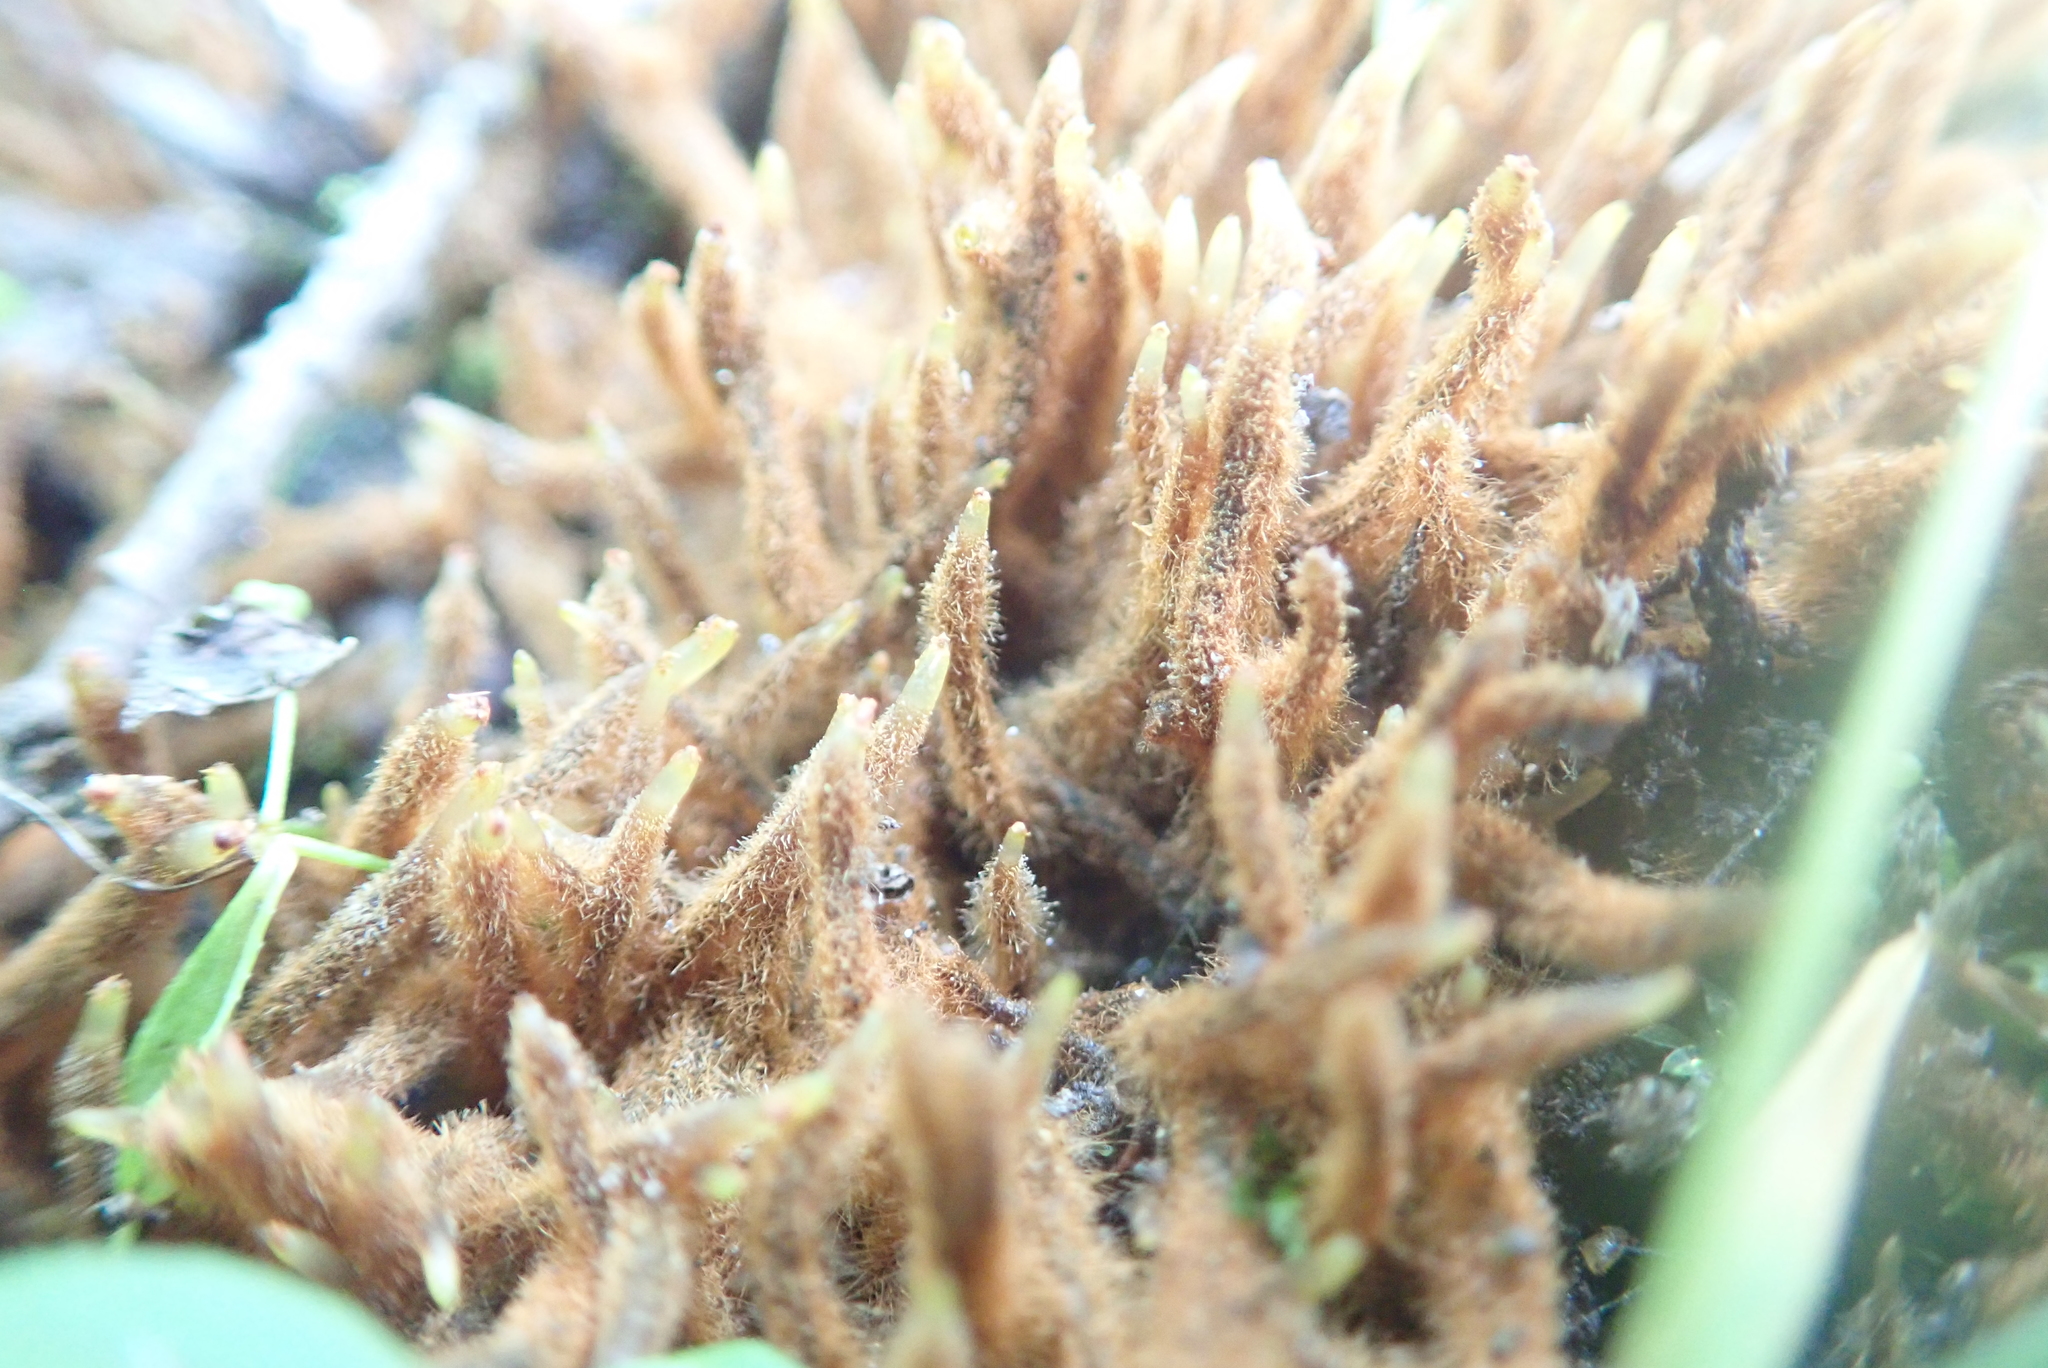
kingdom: Plantae
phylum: Tracheophyta
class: Polypodiopsida
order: Osmundales
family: Osmundaceae
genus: Osmunda
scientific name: Osmunda spectabilis
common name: American royal fern
